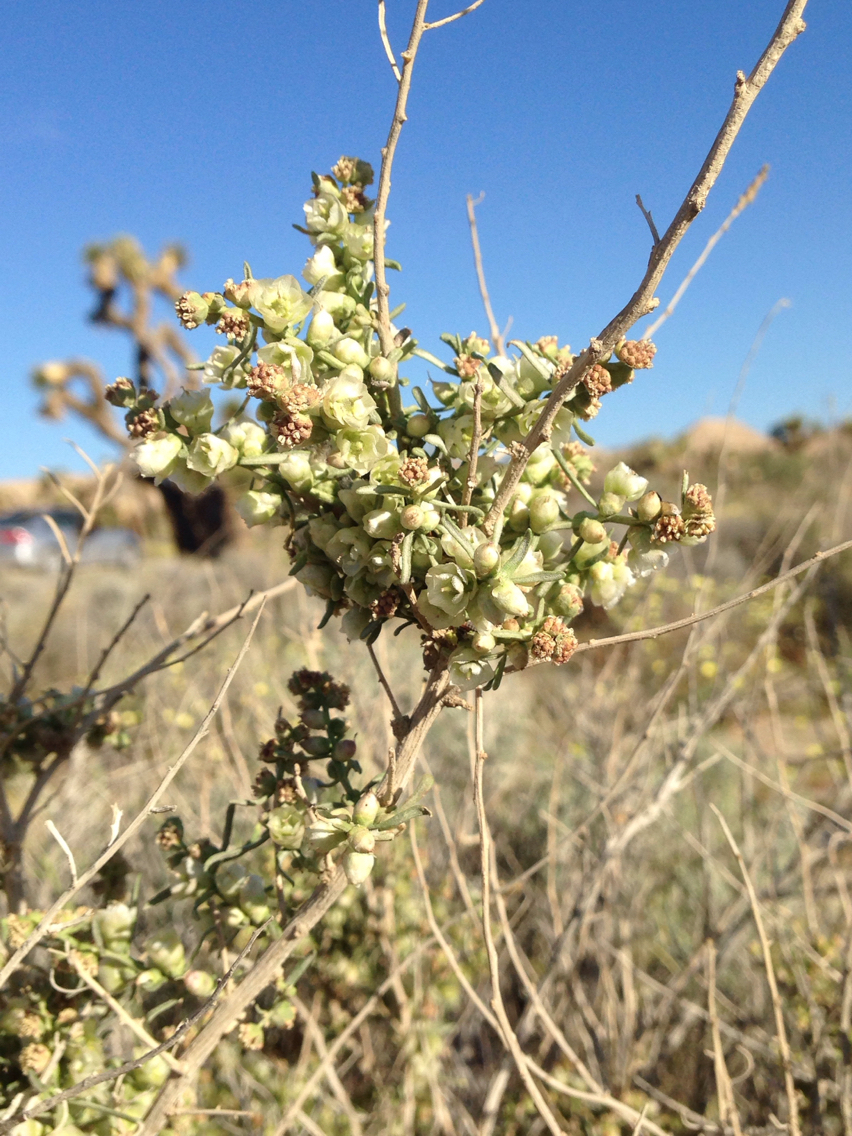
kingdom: Plantae
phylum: Tracheophyta
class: Magnoliopsida
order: Asterales
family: Asteraceae
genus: Ambrosia
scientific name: Ambrosia salsola
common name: Burrobrush
